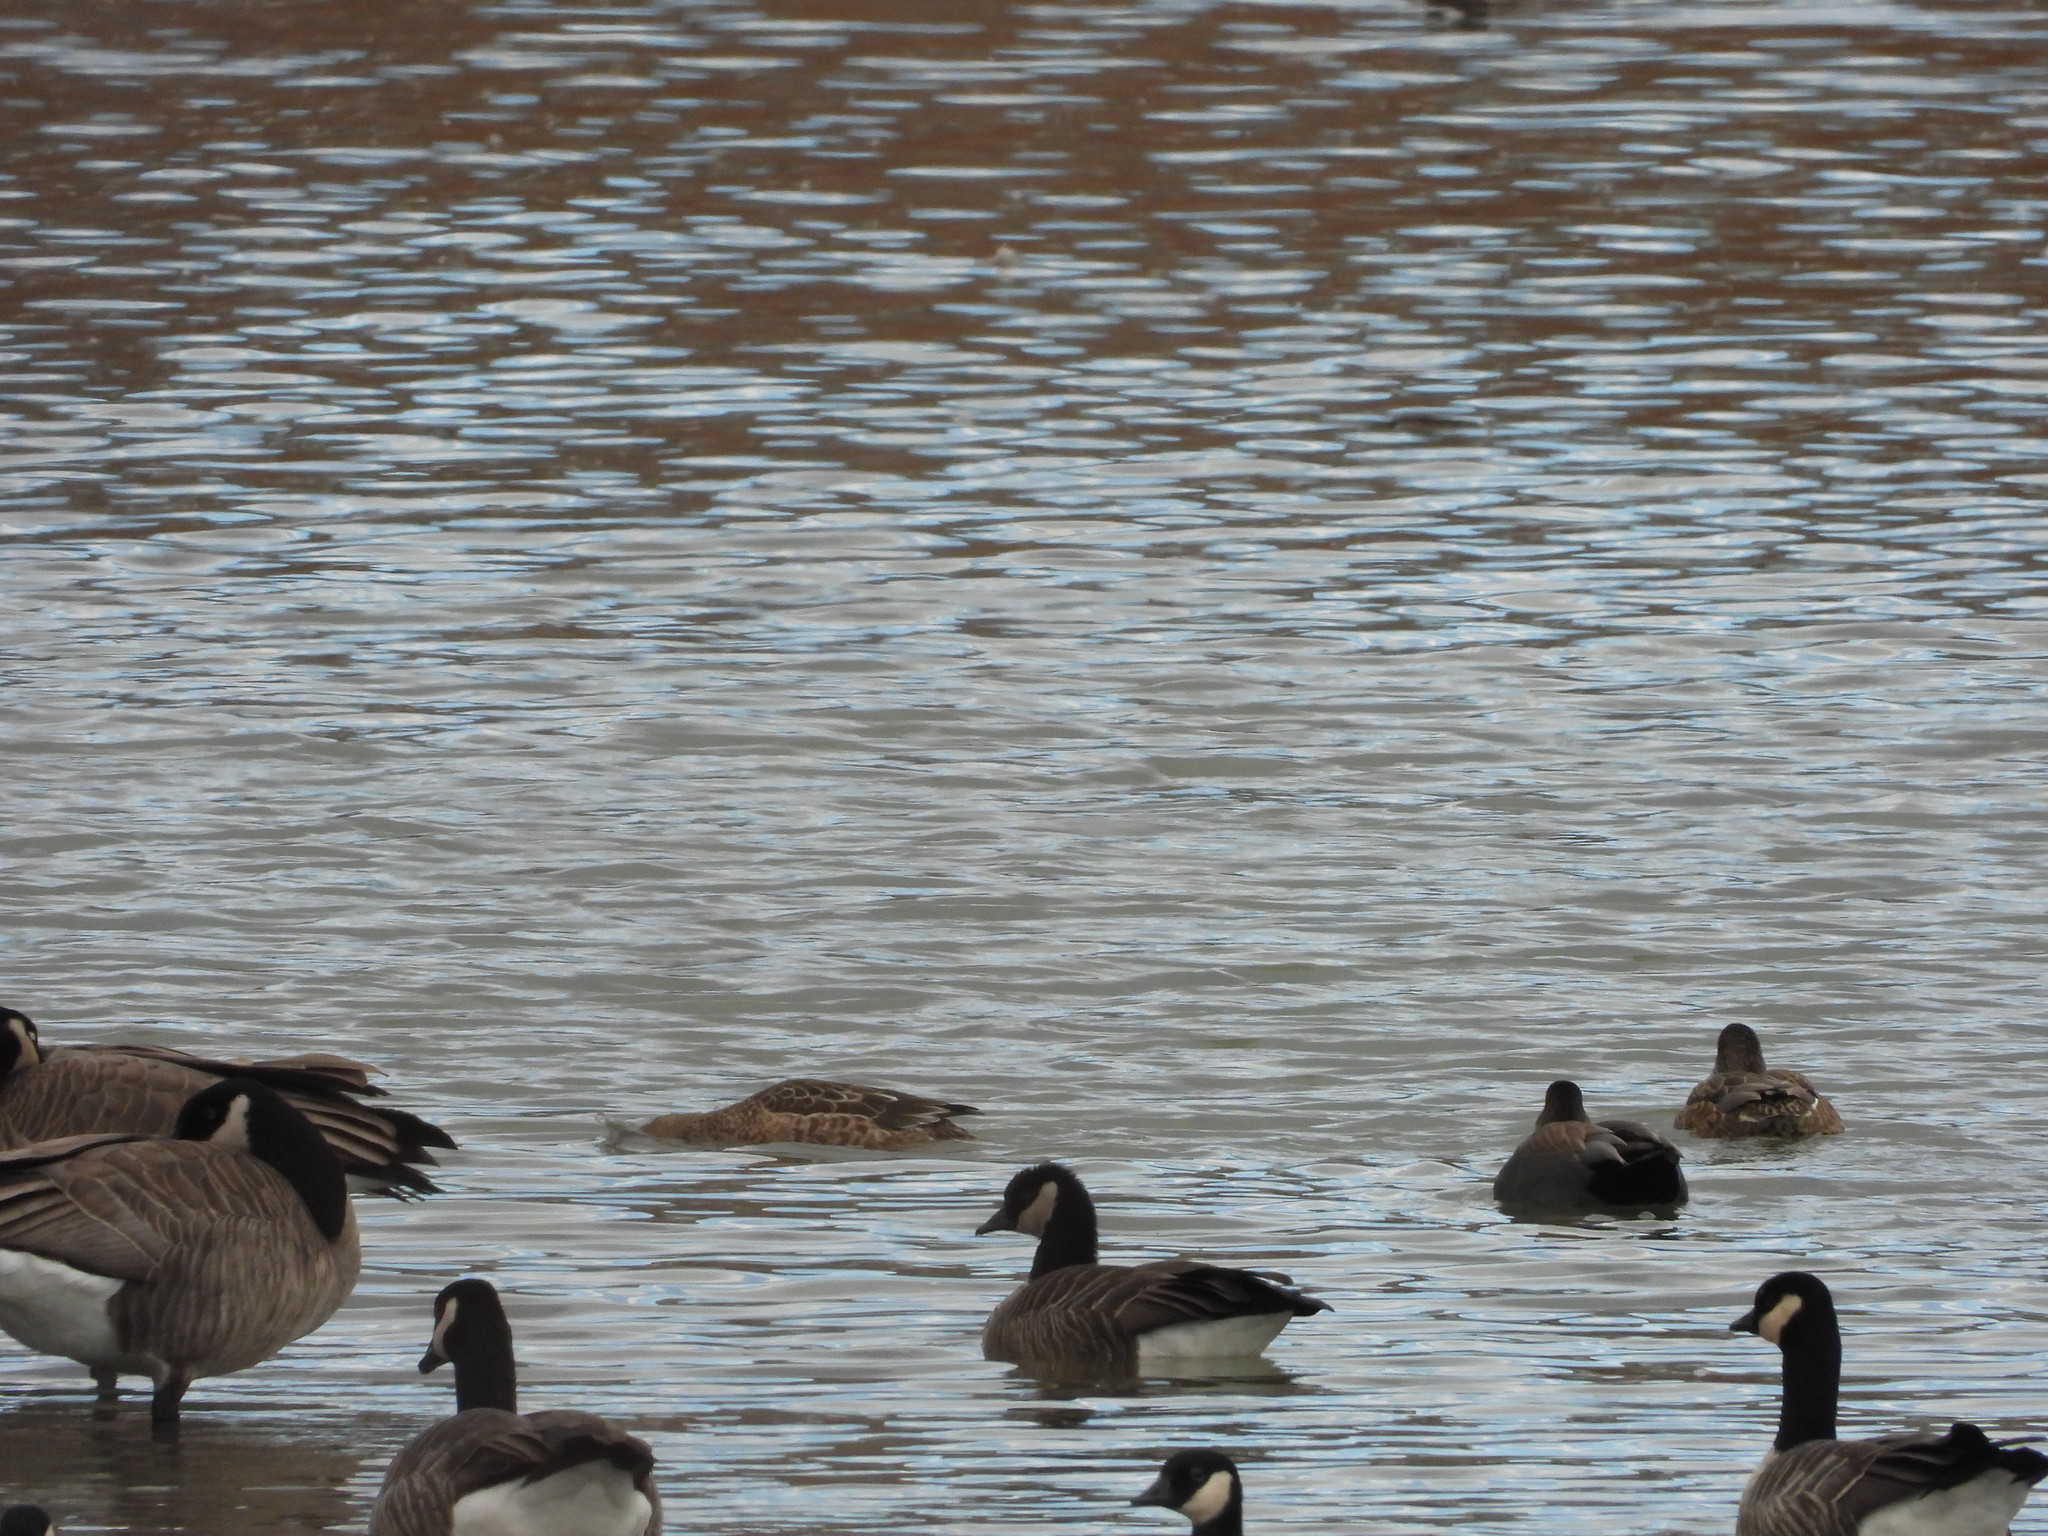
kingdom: Animalia
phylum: Chordata
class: Aves
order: Anseriformes
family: Anatidae
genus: Branta
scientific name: Branta hutchinsii
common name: Cackling goose
